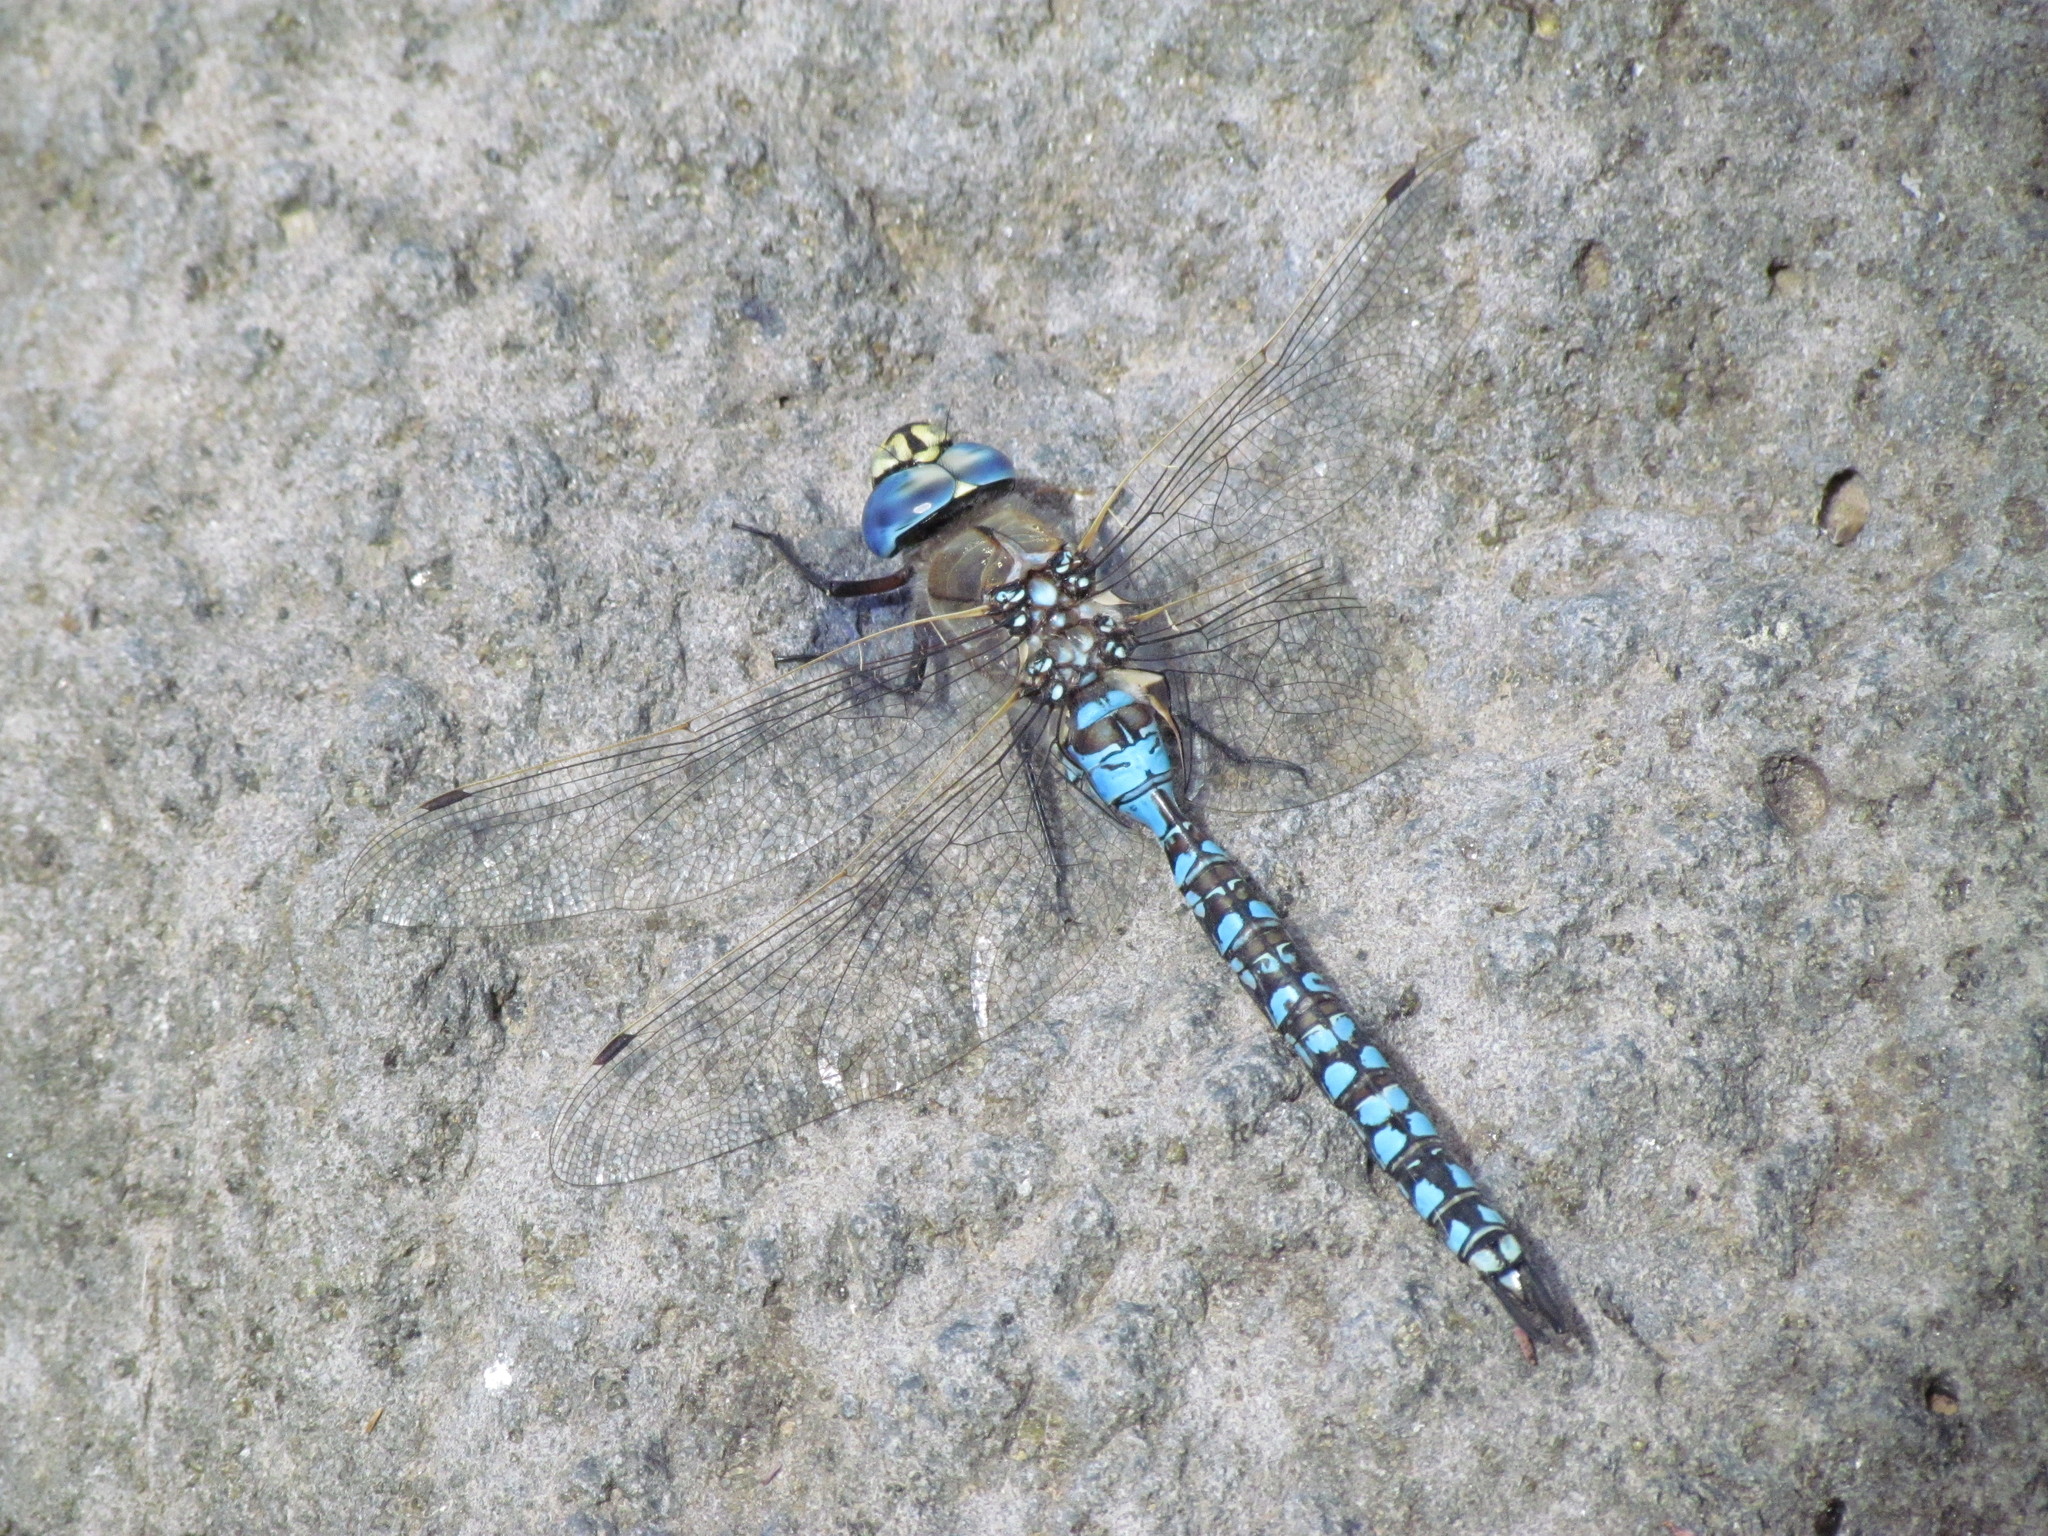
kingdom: Animalia
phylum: Arthropoda
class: Insecta
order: Odonata
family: Aeshnidae
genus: Rhionaeschna
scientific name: Rhionaeschna variegata
